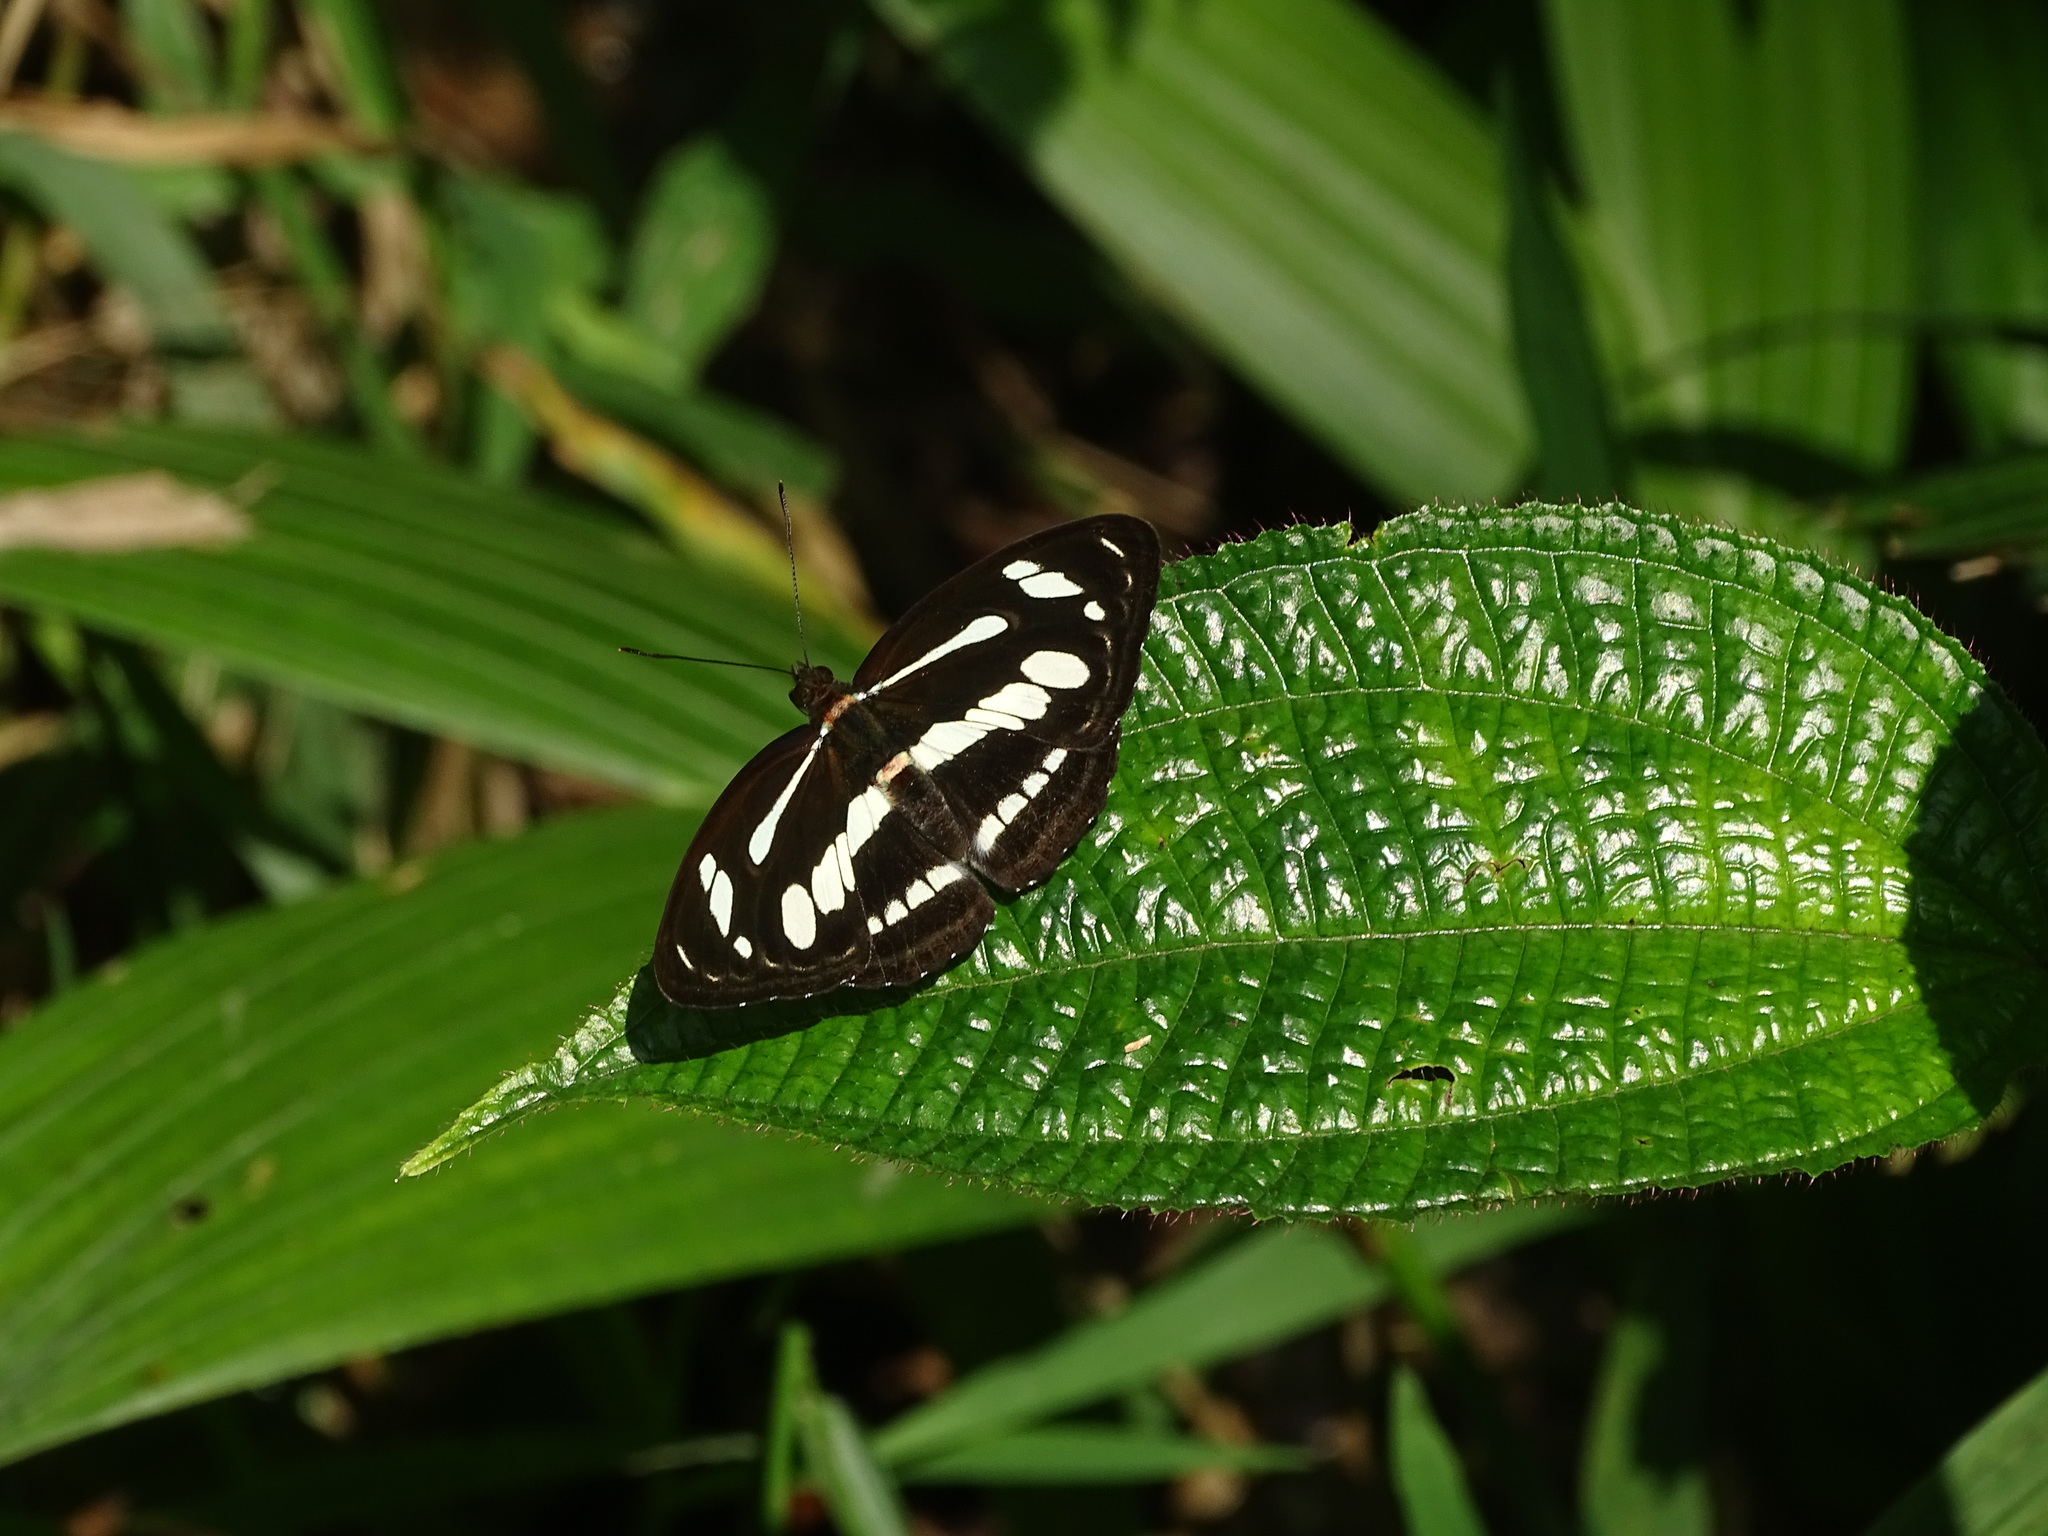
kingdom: Animalia
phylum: Arthropoda
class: Insecta
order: Lepidoptera
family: Nymphalidae
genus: Parathyma
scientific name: Parathyma pravara
